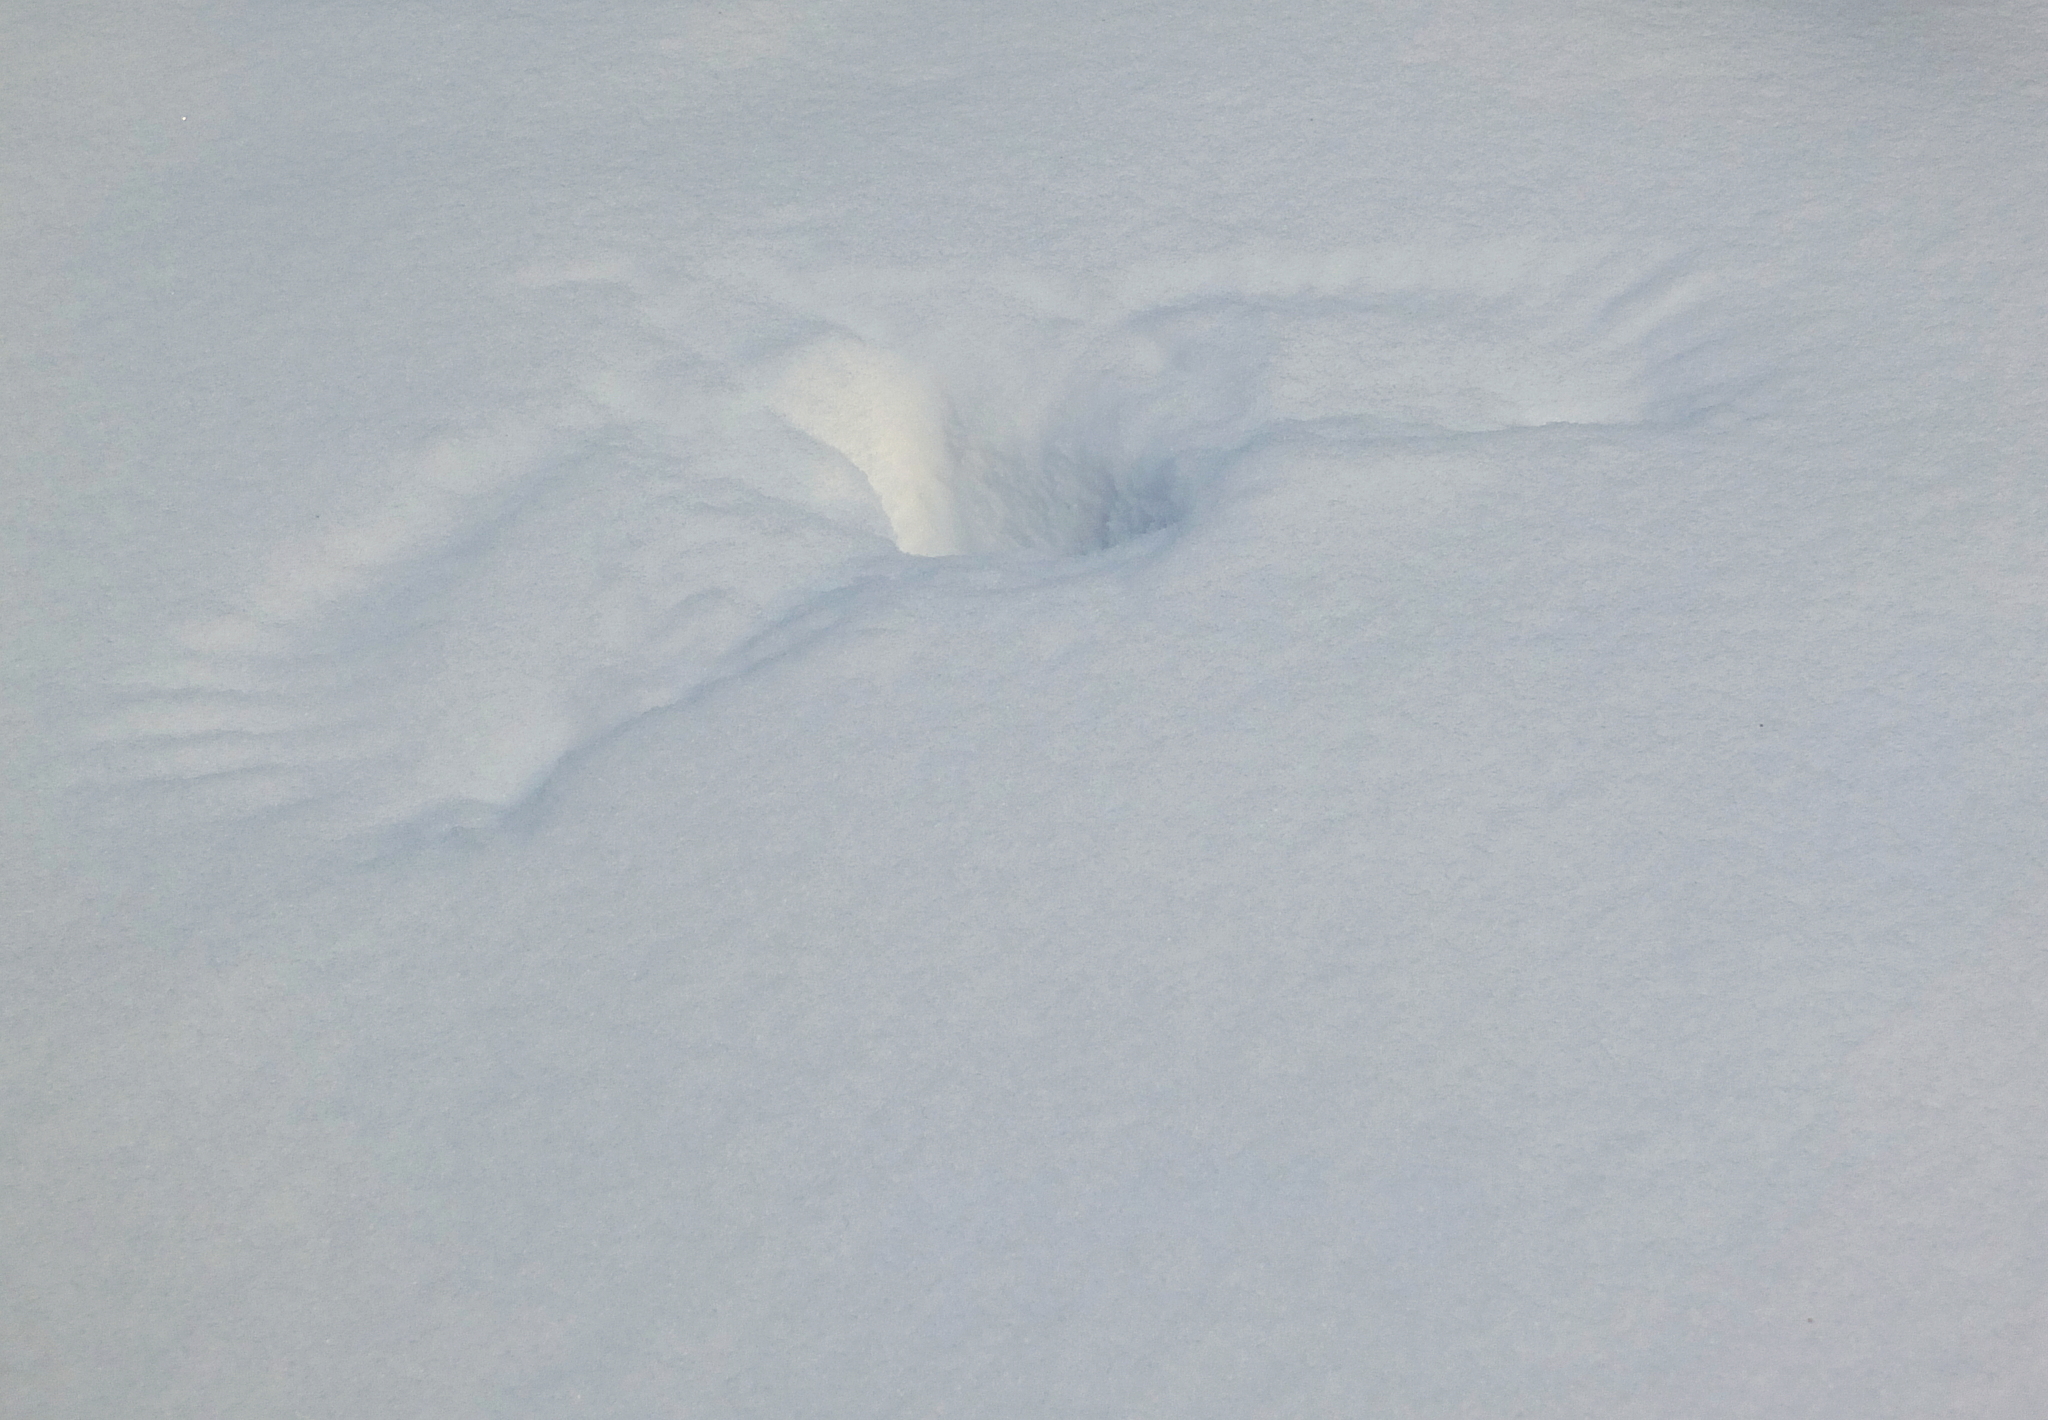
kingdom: Animalia
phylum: Chordata
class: Aves
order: Strigiformes
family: Strigidae
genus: Strix
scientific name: Strix nebulosa
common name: Great grey owl
